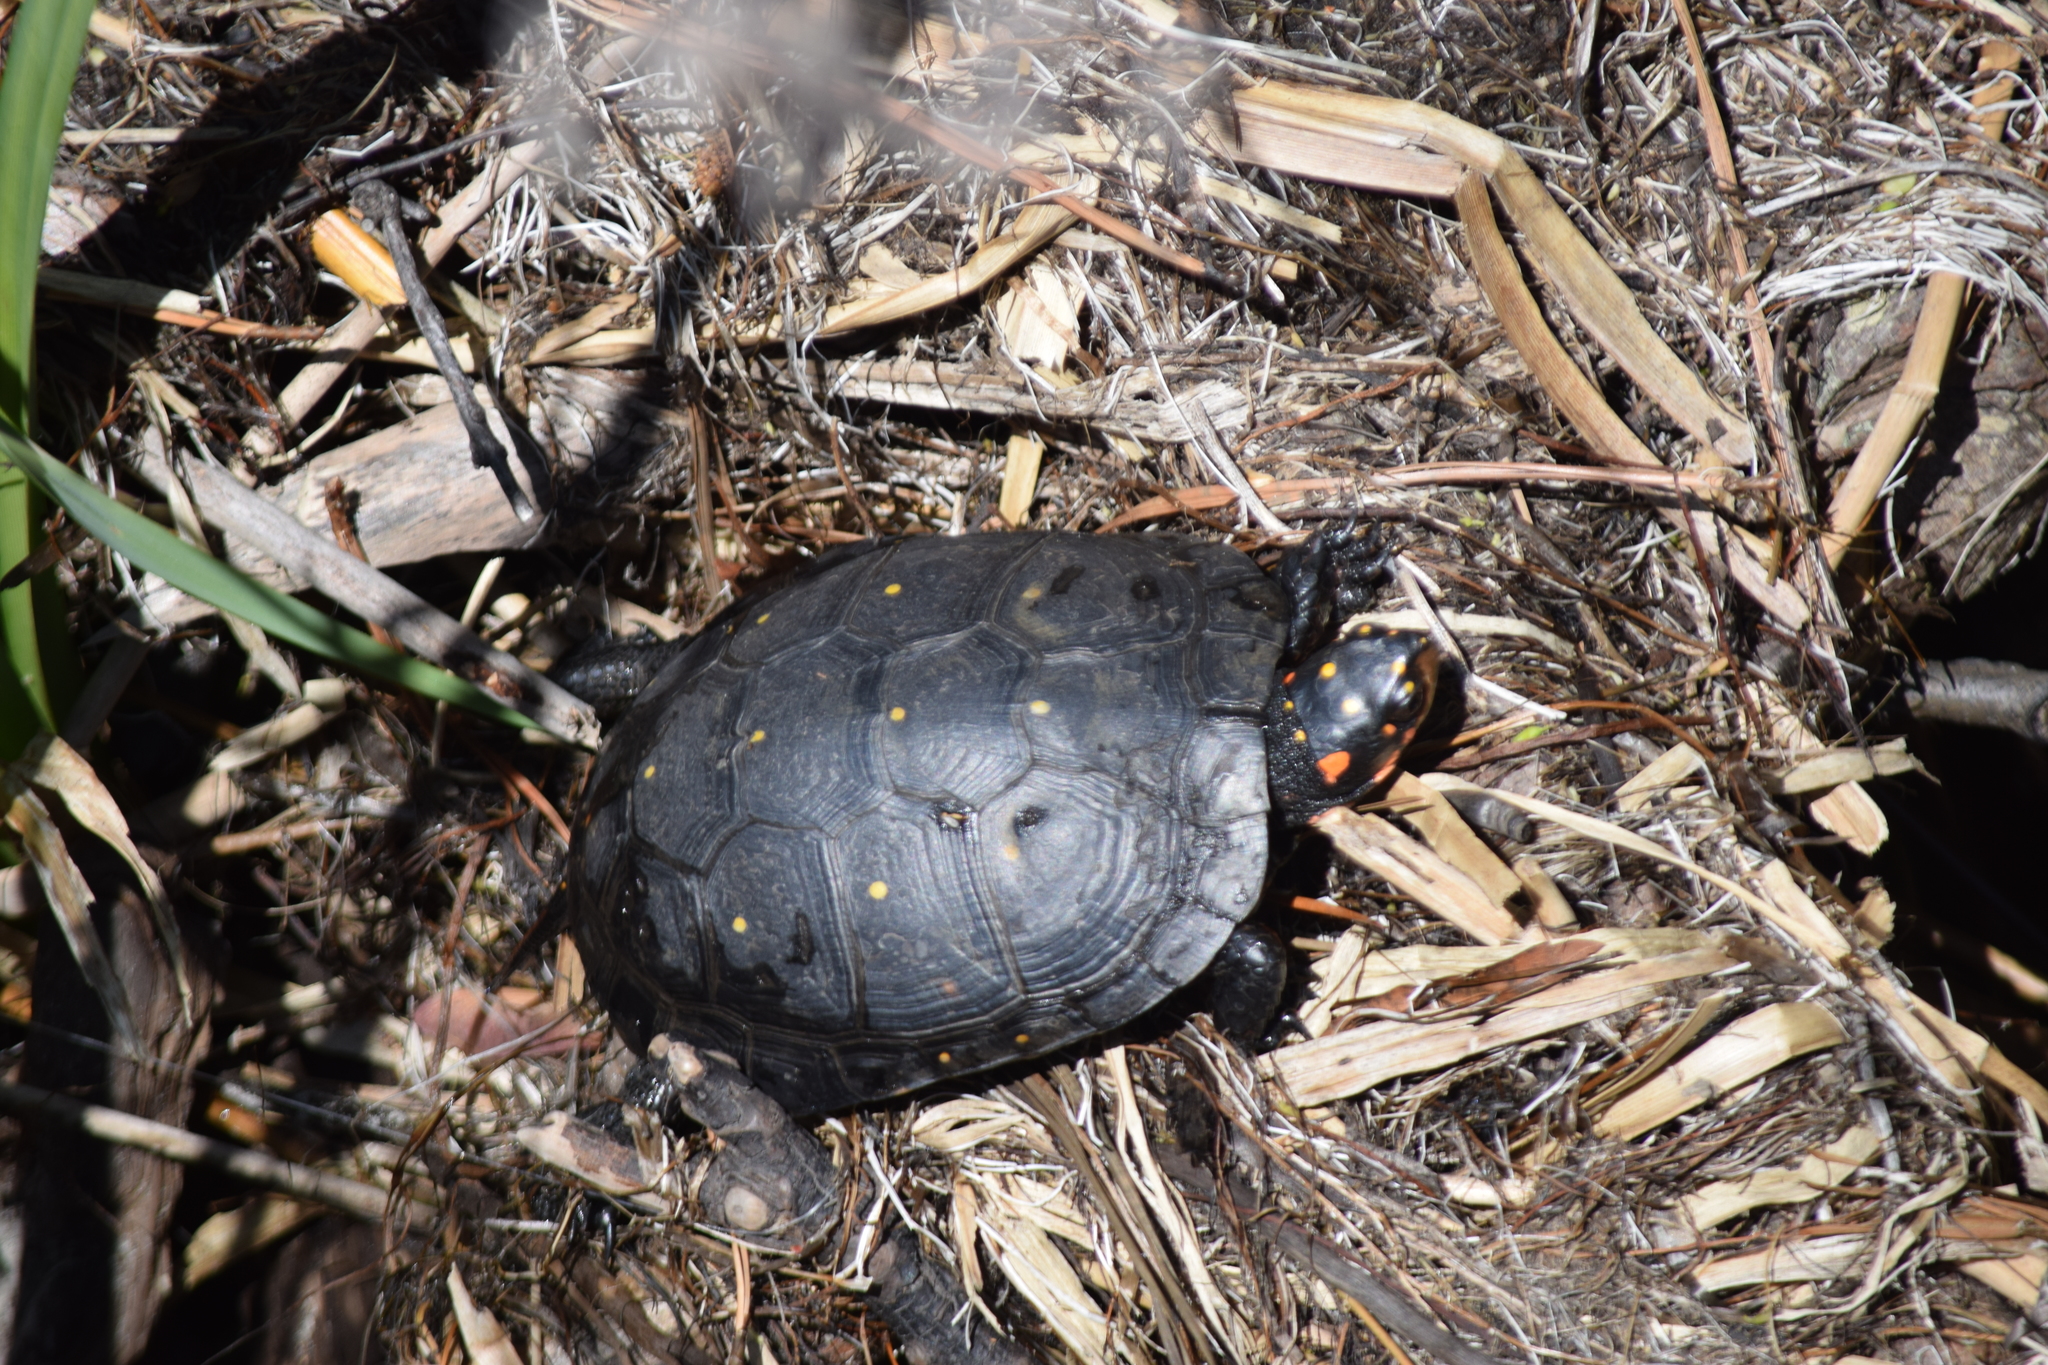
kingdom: Animalia
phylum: Chordata
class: Testudines
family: Emydidae
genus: Clemmys
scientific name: Clemmys guttata
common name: Spotted turtle
